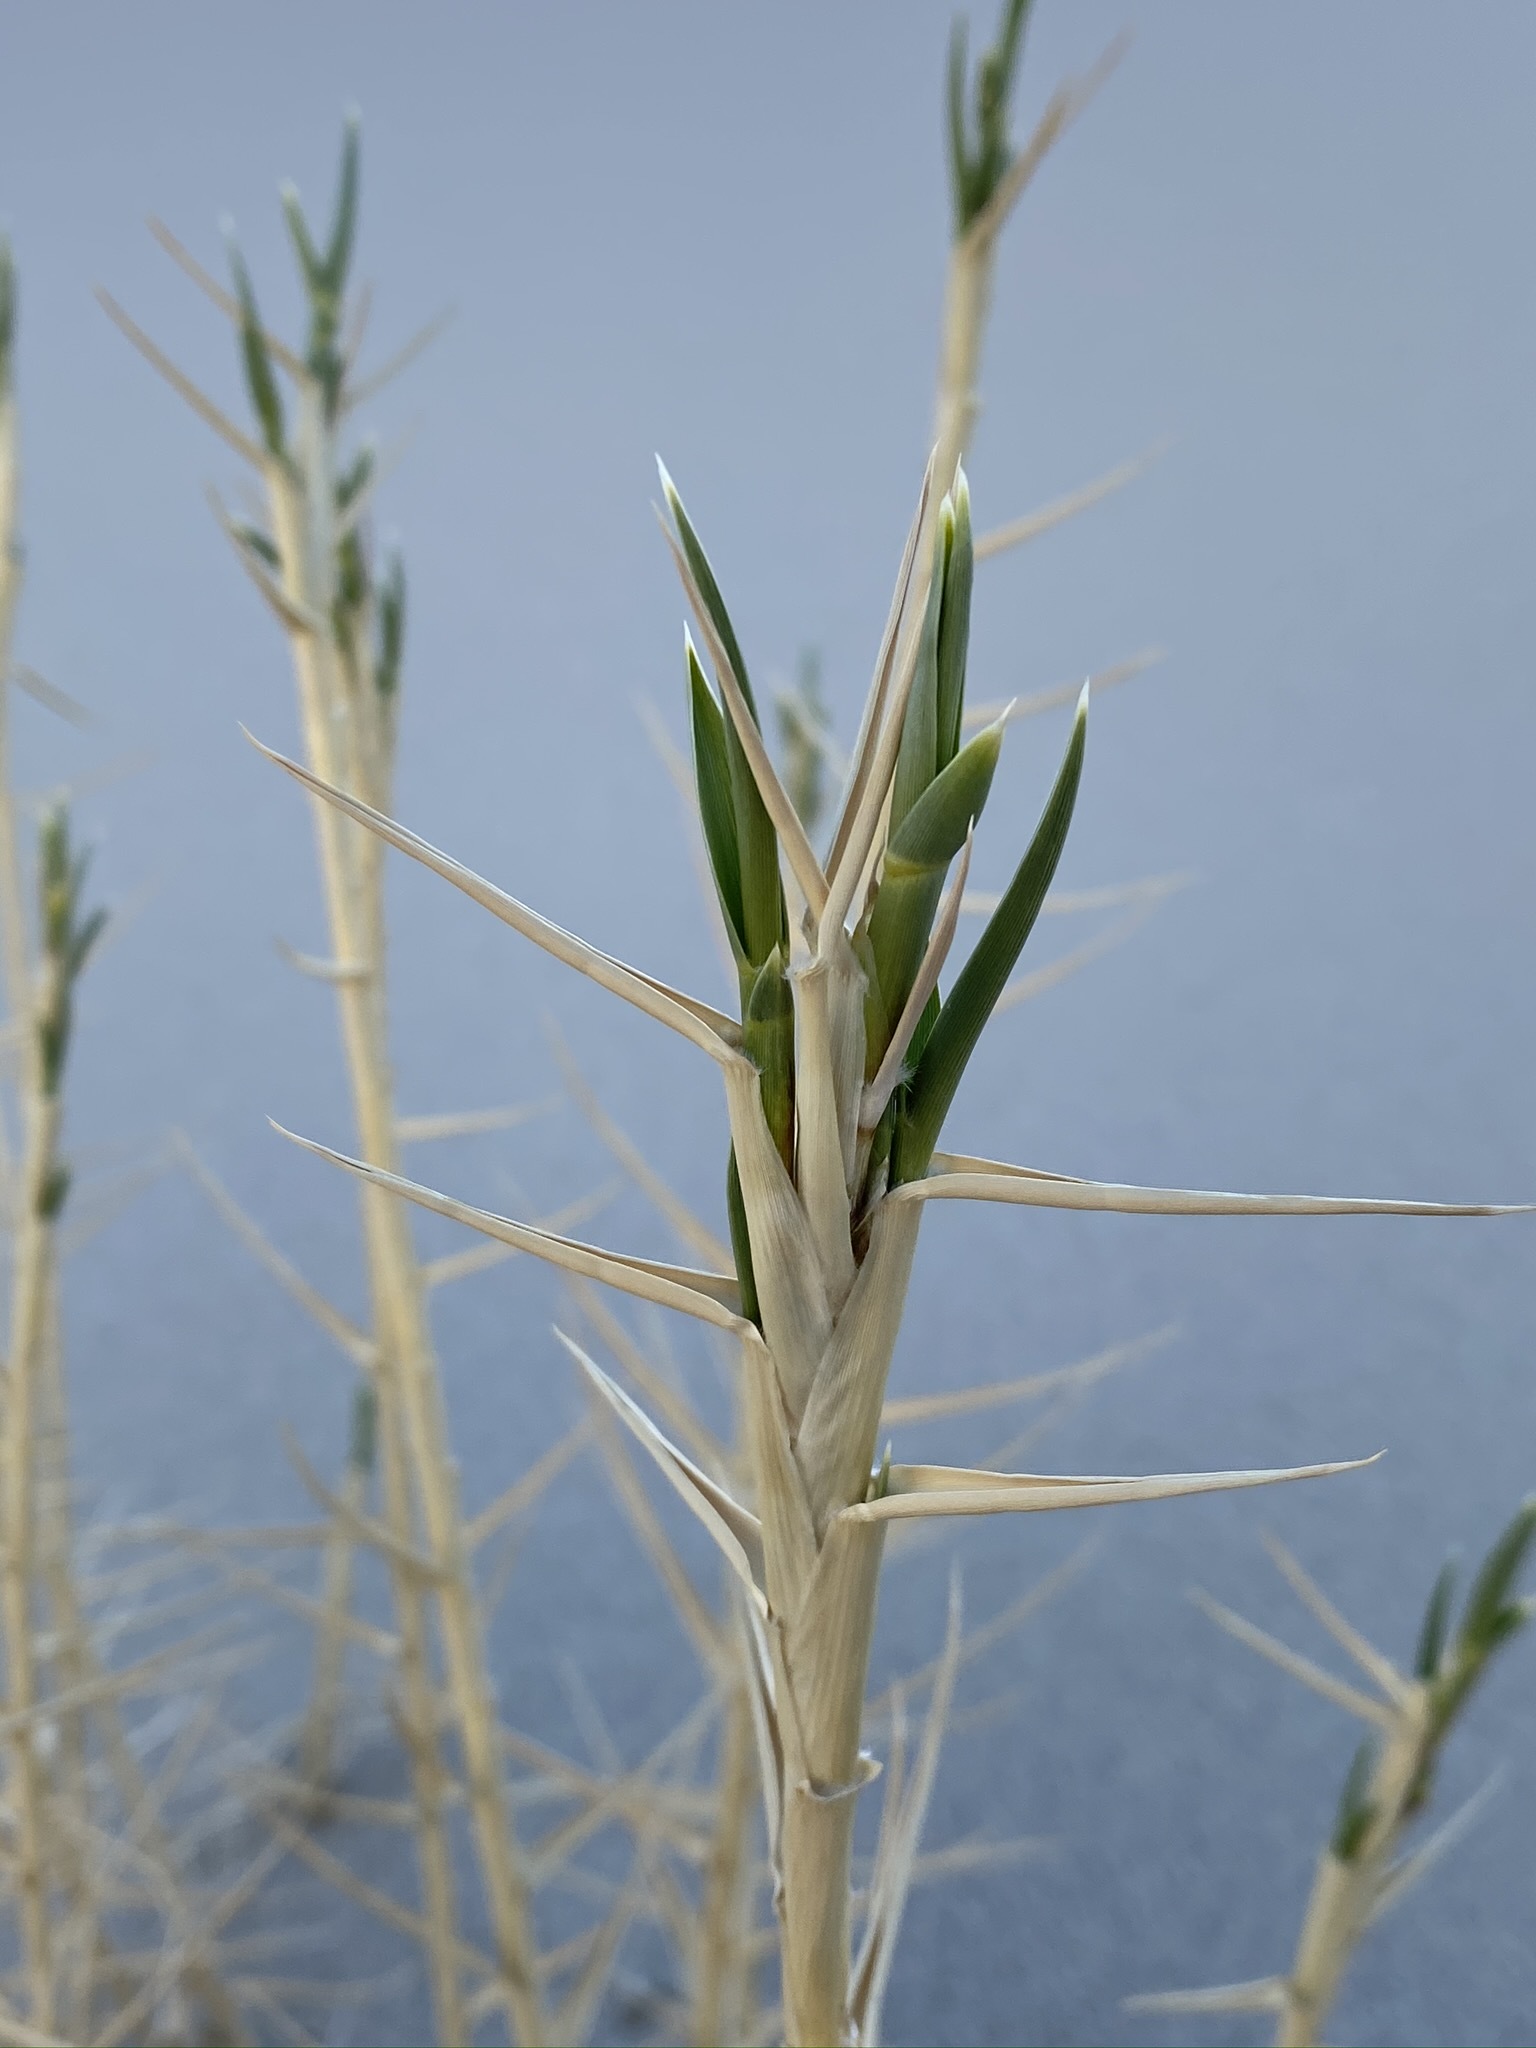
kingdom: Plantae
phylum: Tracheophyta
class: Liliopsida
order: Poales
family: Poaceae
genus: Swallenia
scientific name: Swallenia alexandrae
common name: Eureka dune grass
